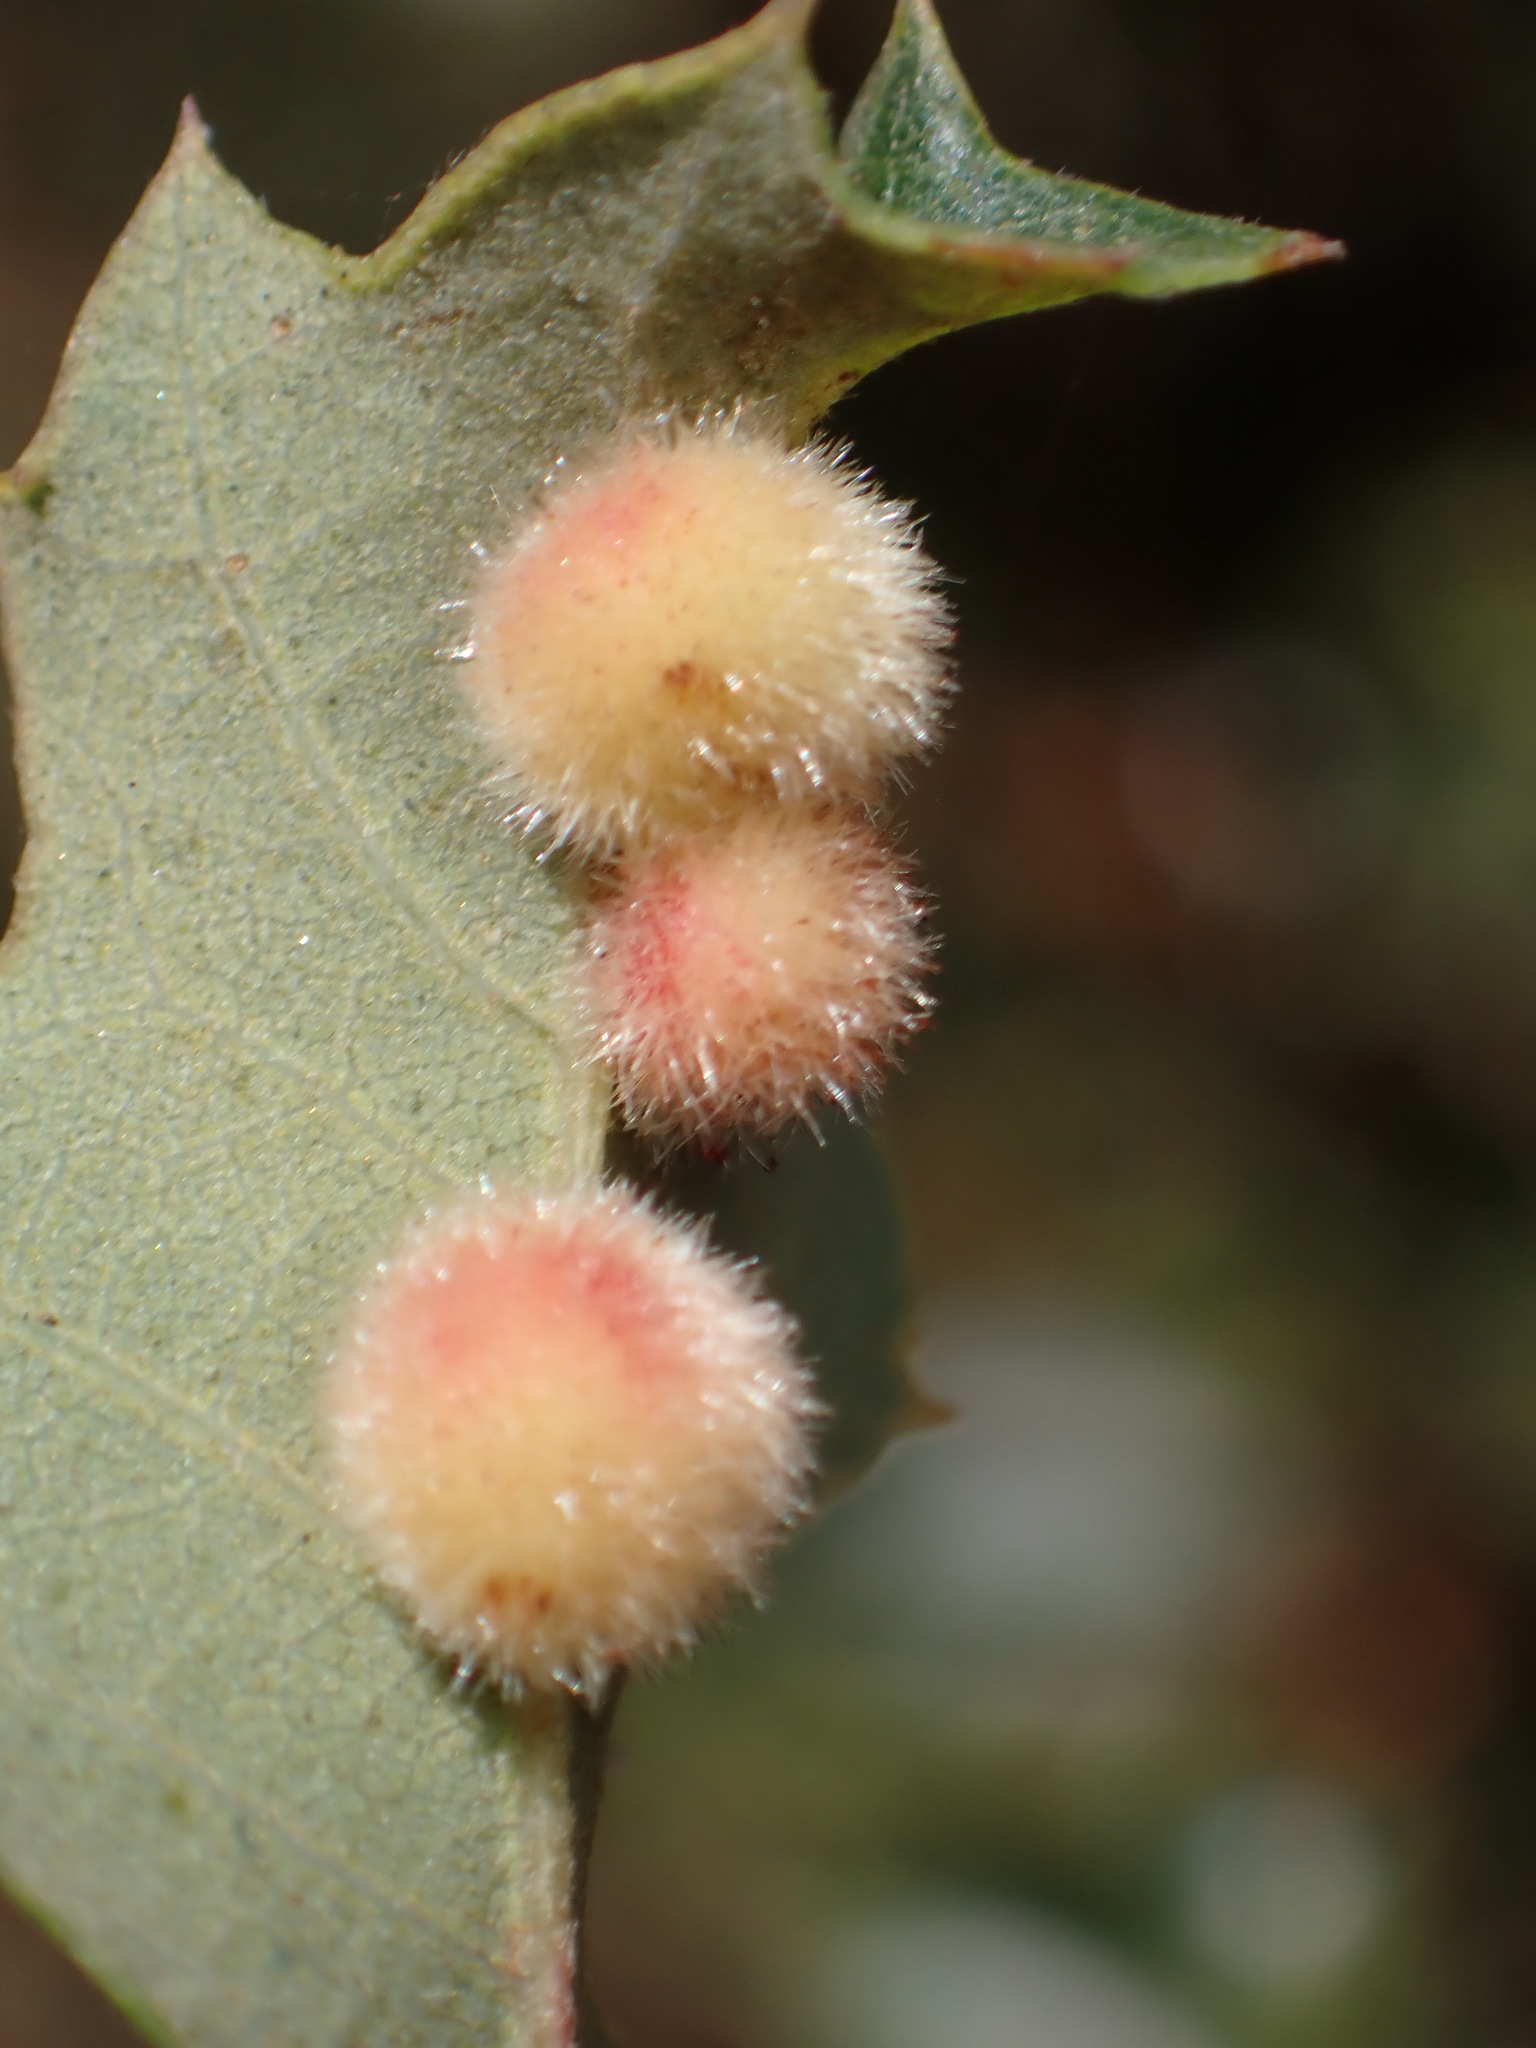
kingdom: Animalia
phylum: Arthropoda
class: Insecta
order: Hymenoptera
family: Cynipidae
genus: Atrusca
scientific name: Atrusca
